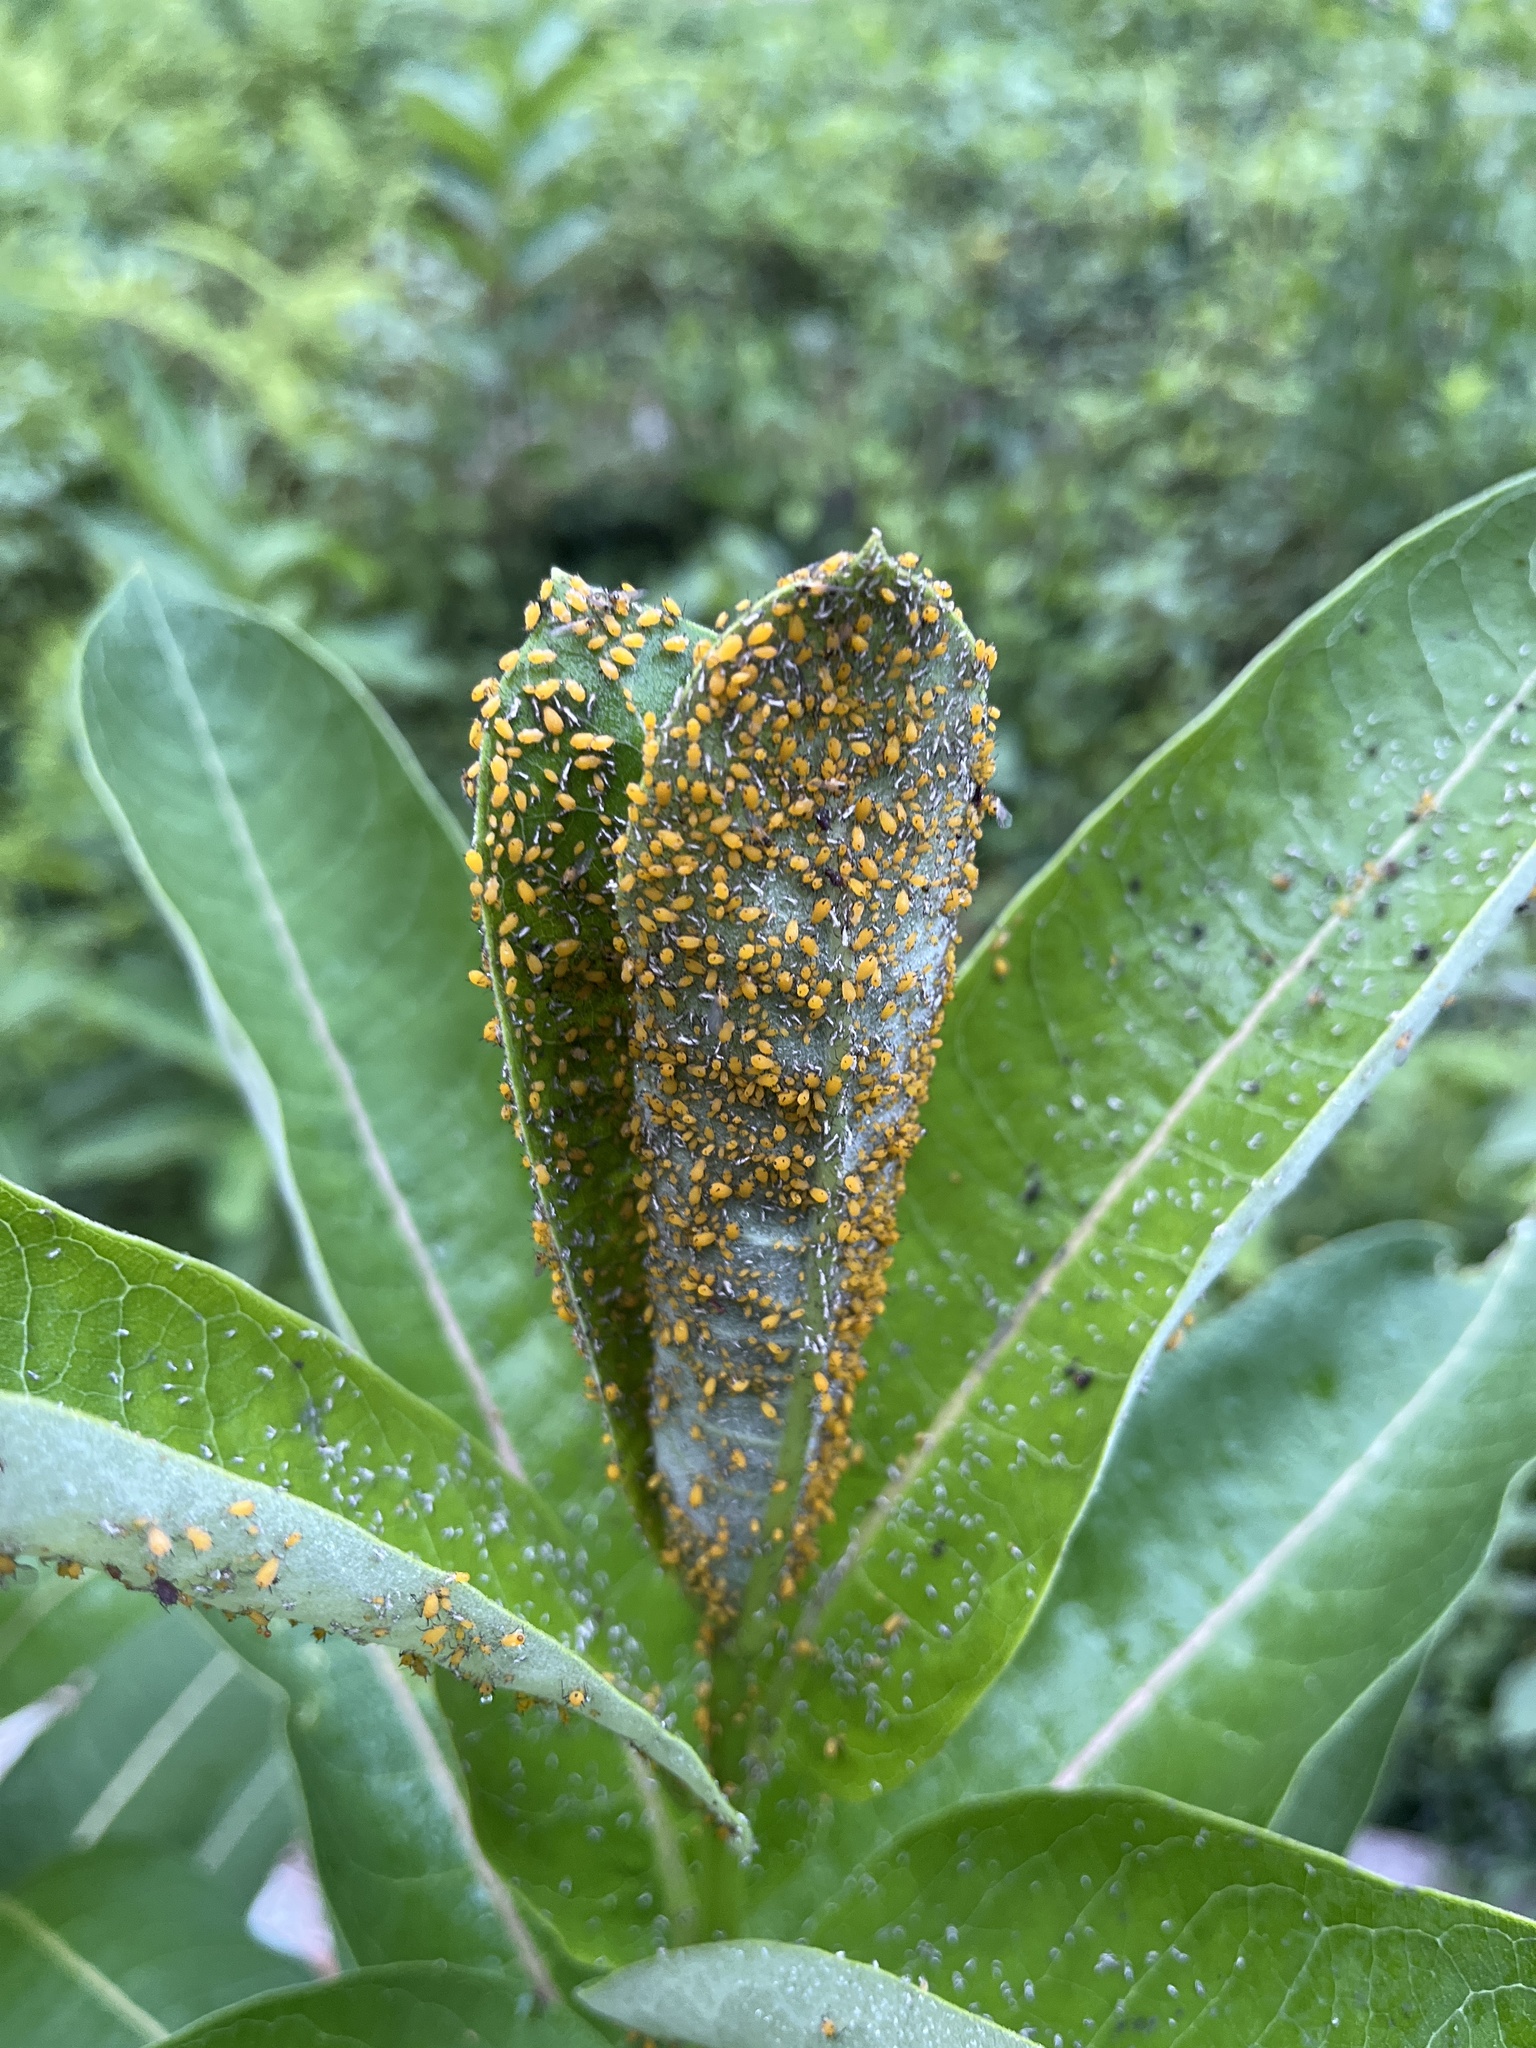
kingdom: Animalia
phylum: Arthropoda
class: Insecta
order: Hemiptera
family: Aphididae
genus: Aphis
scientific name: Aphis nerii
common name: Oleander aphid
